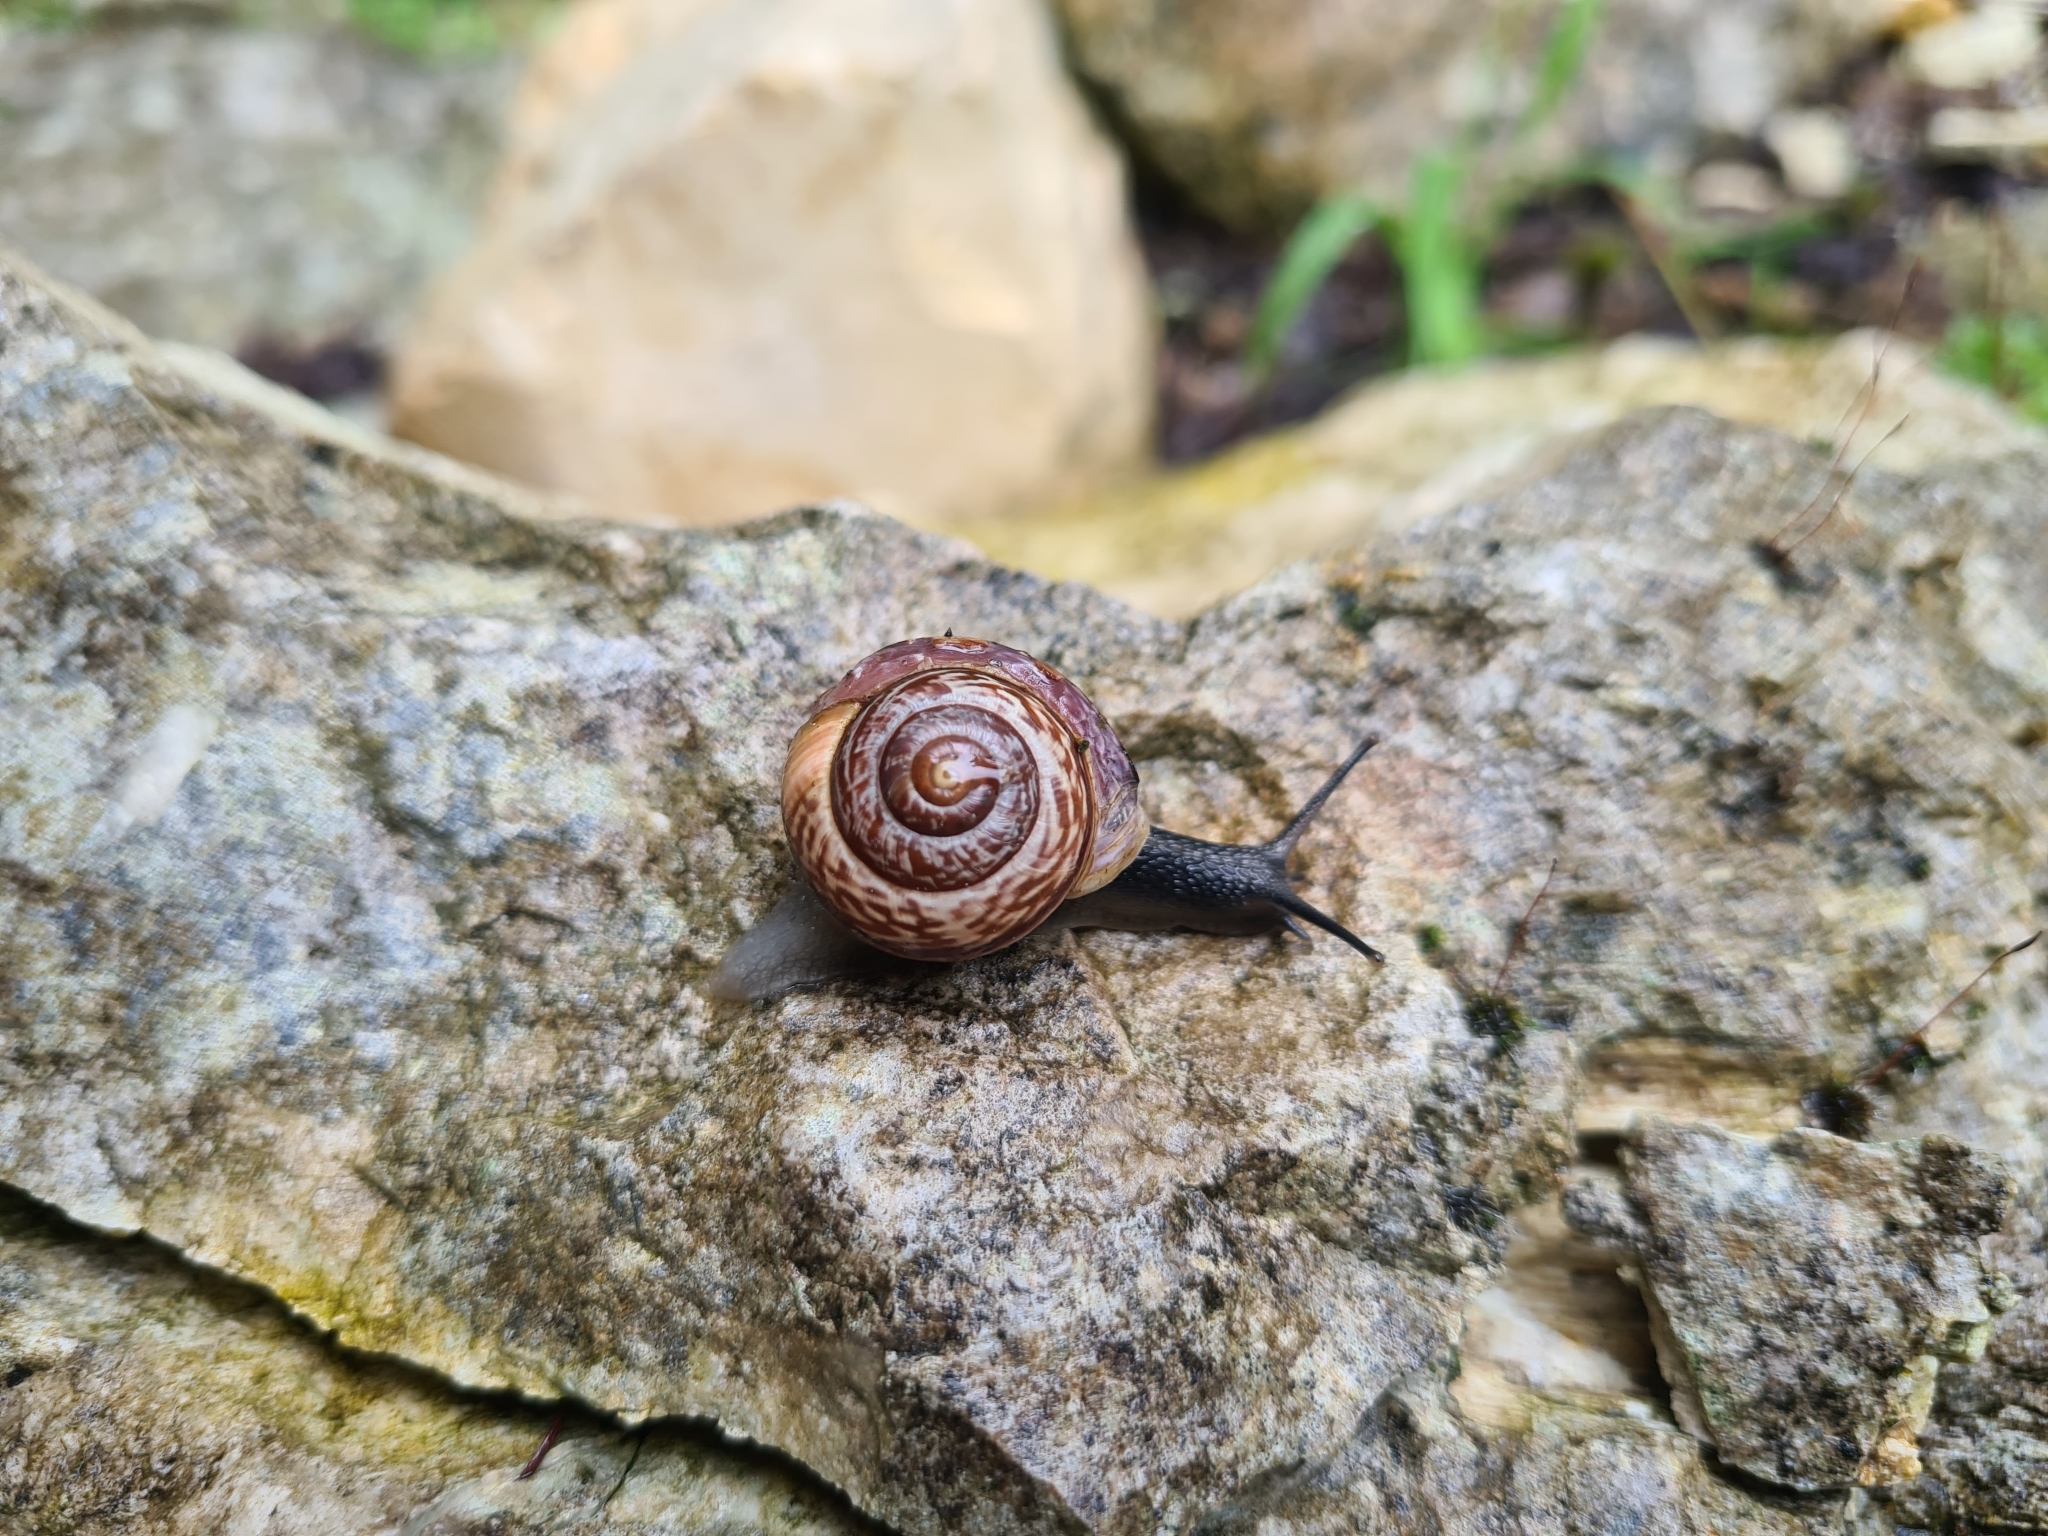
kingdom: Animalia
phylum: Mollusca
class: Gastropoda
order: Stylommatophora
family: Helicidae
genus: Arianta
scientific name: Arianta arbustorum
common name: Copse snail
